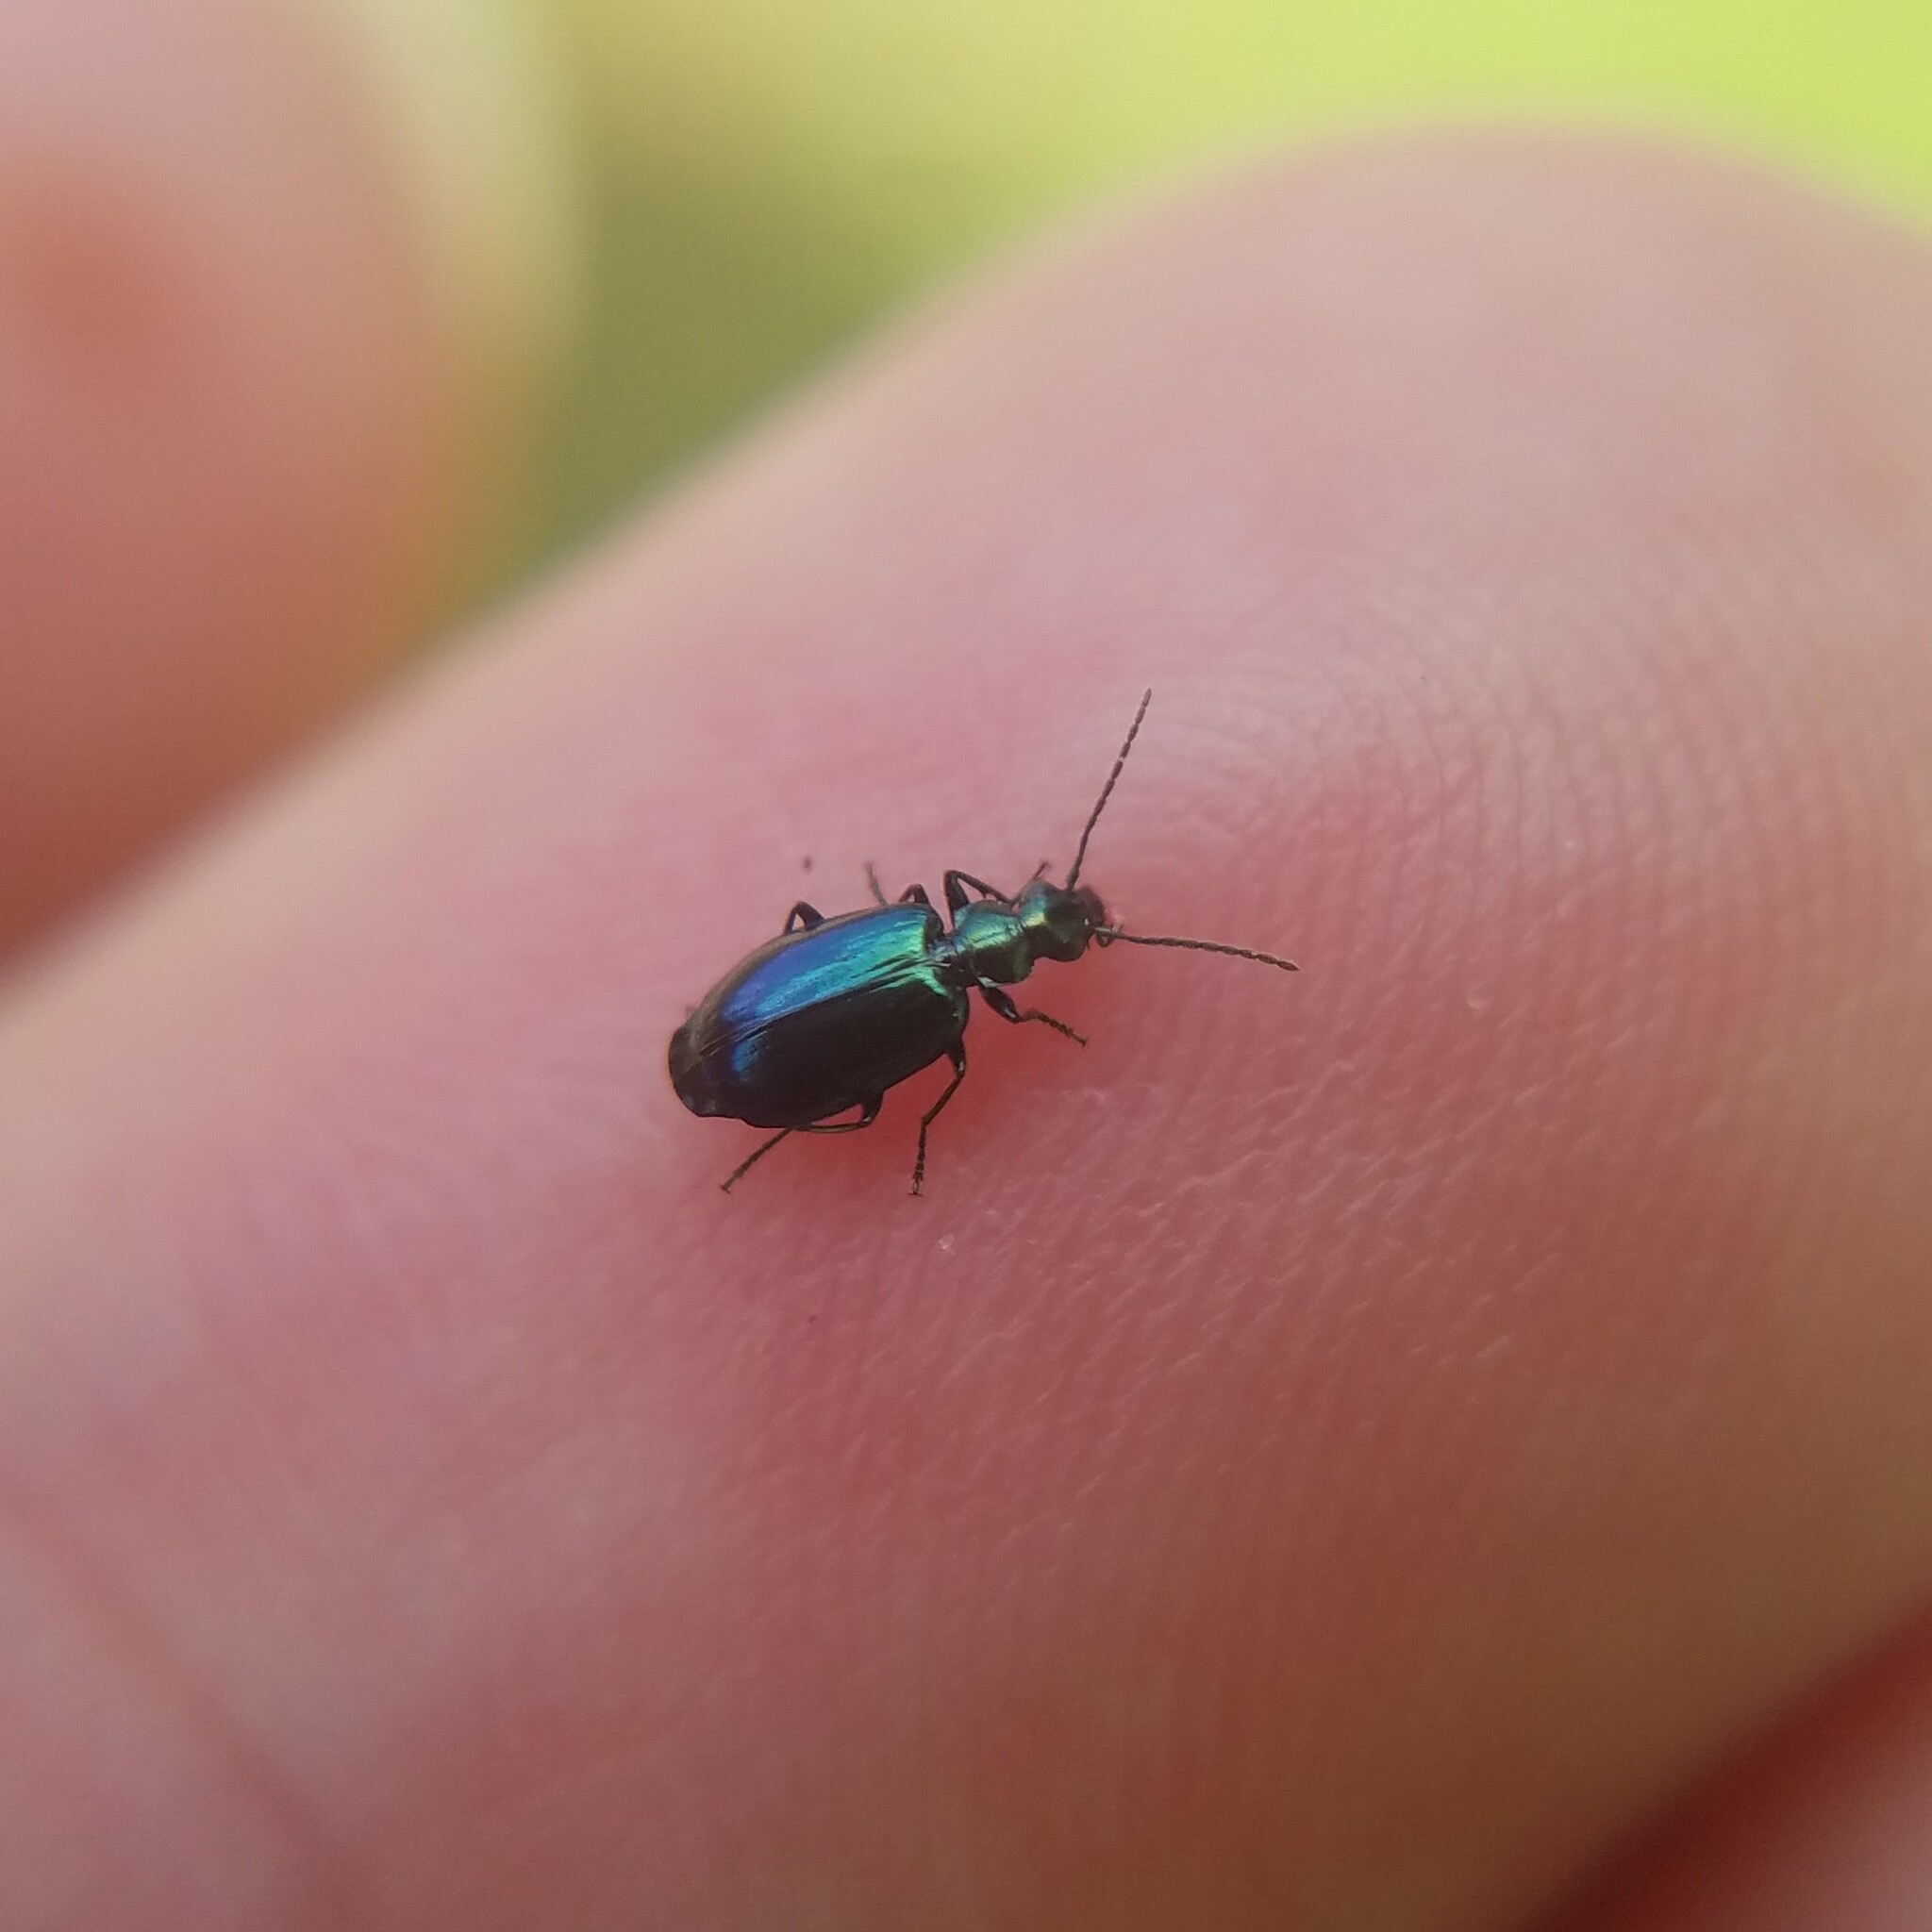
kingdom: Animalia
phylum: Arthropoda
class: Insecta
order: Coleoptera
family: Carabidae
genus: Lebia
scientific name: Lebia viridis
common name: Flower lebia beetle
